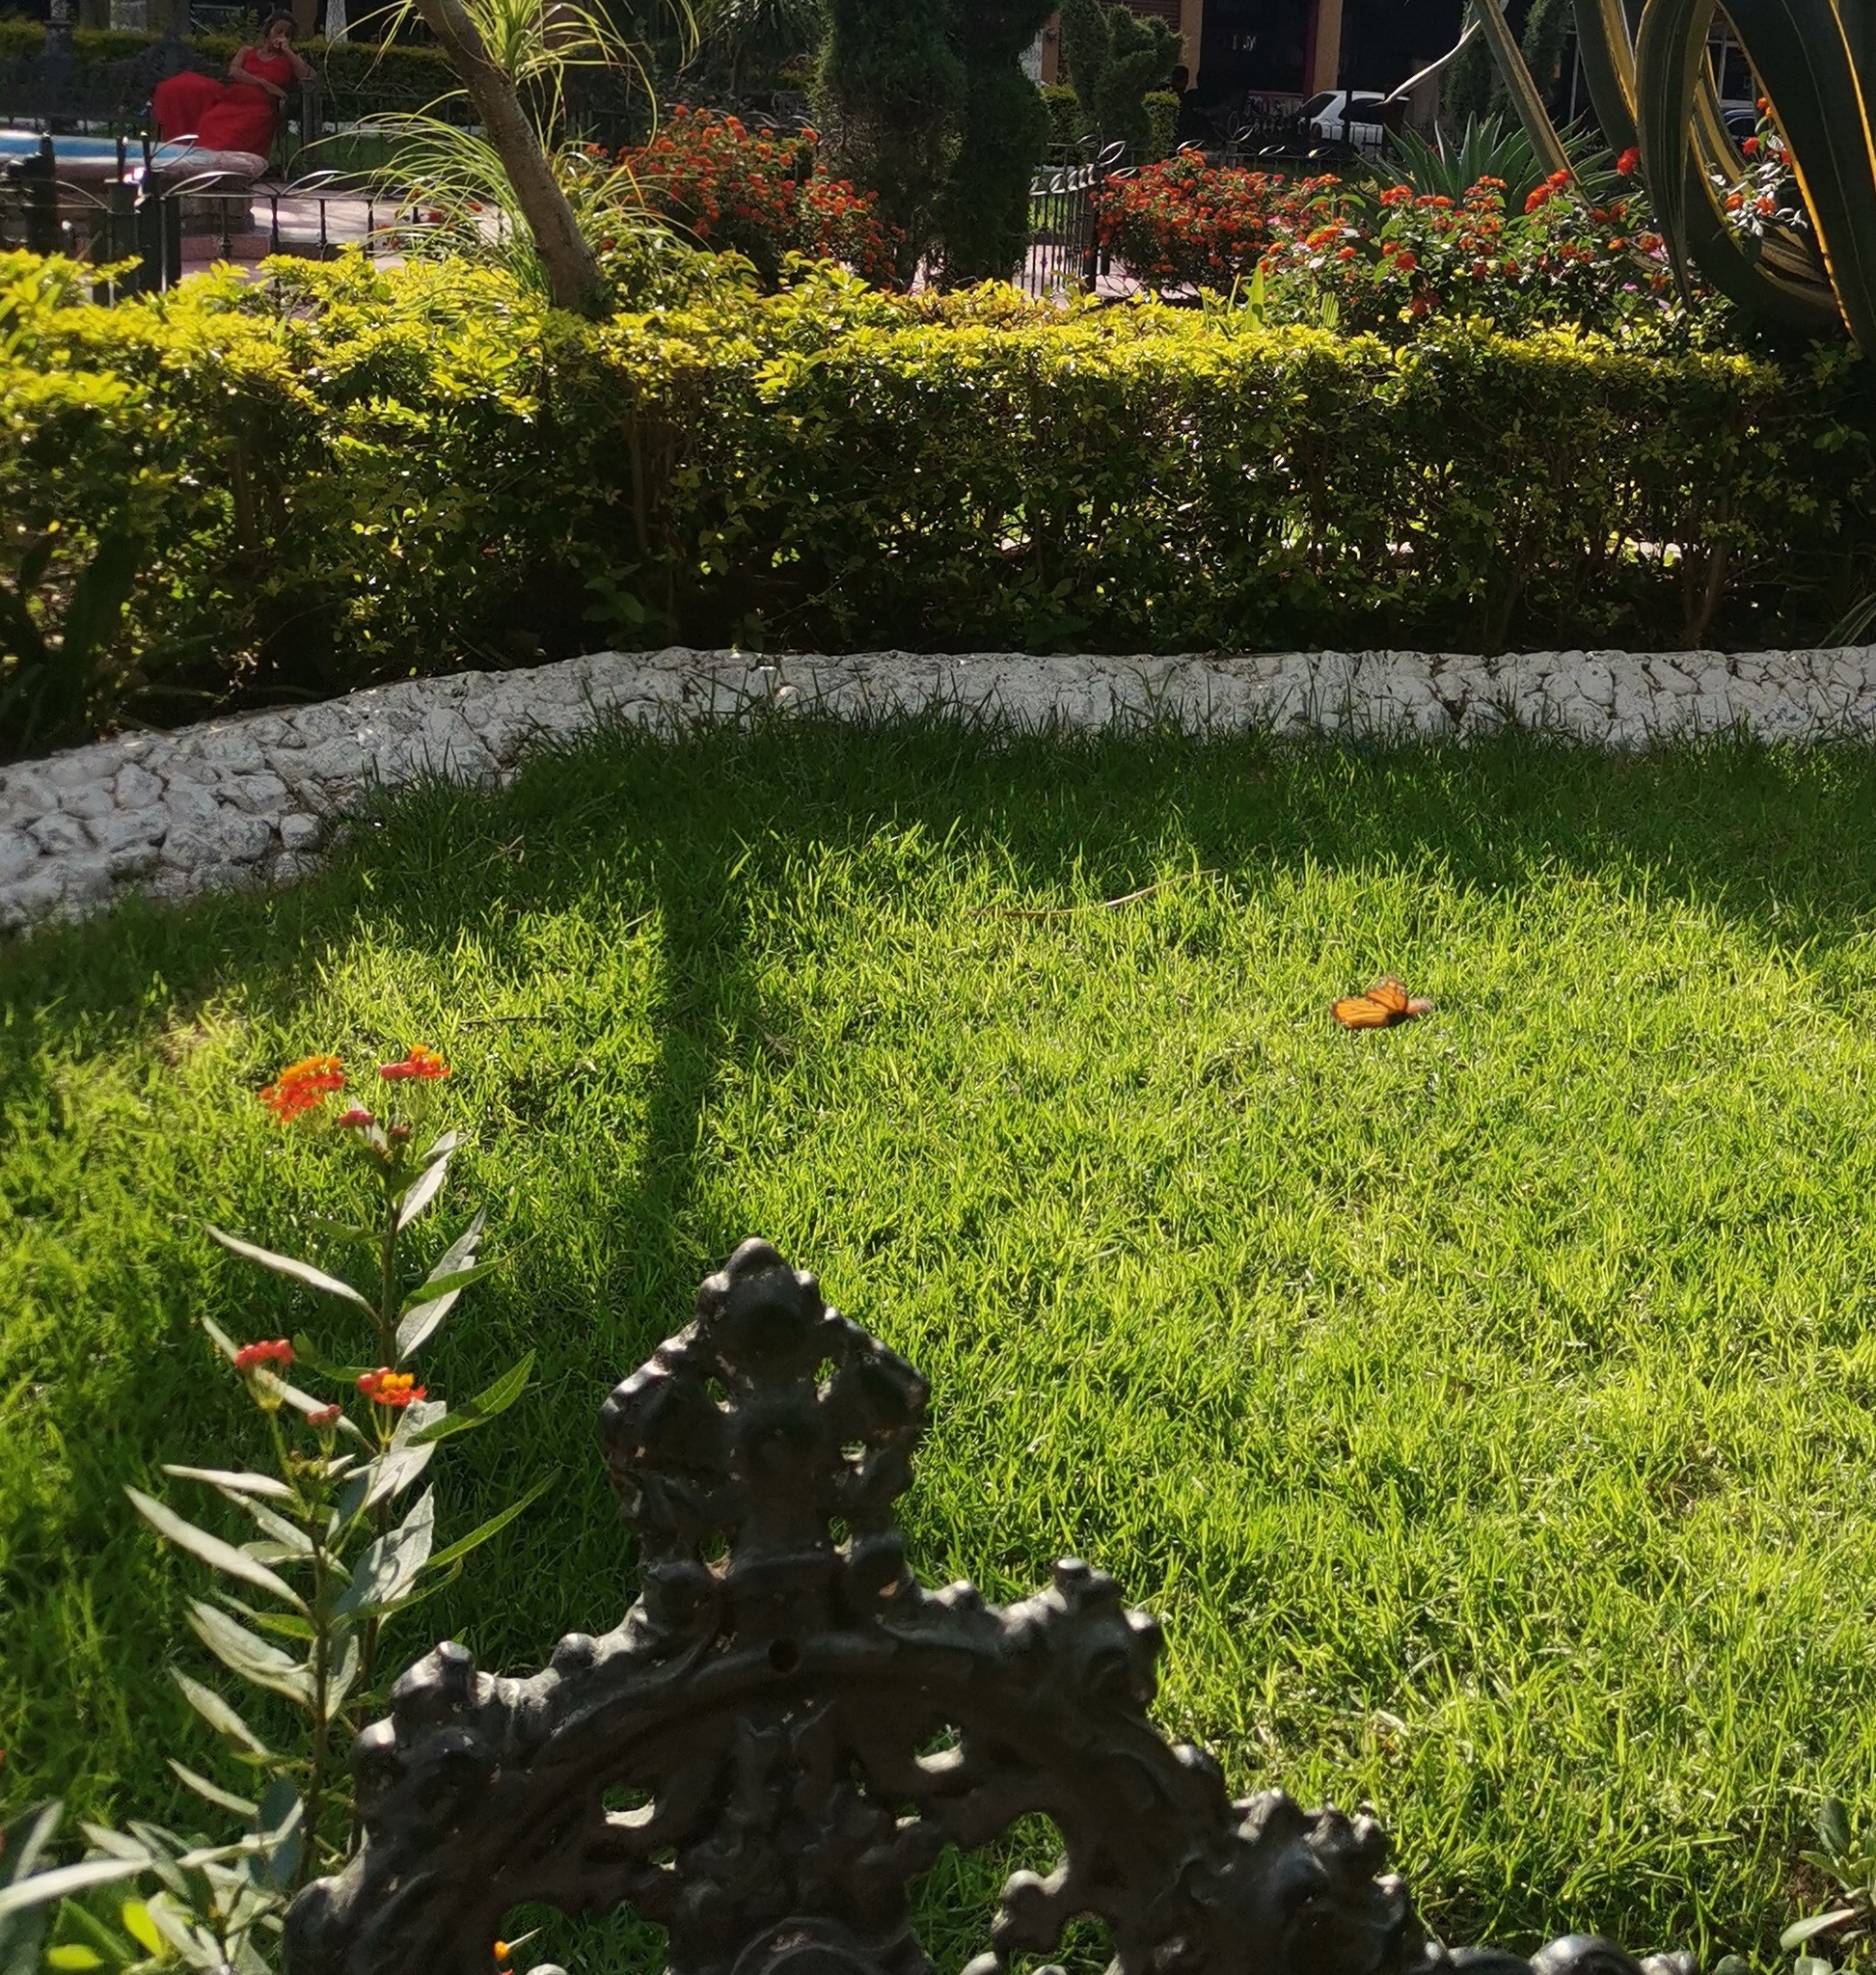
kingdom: Animalia
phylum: Arthropoda
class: Insecta
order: Lepidoptera
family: Nymphalidae
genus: Danaus
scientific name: Danaus plexippus
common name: Monarch
